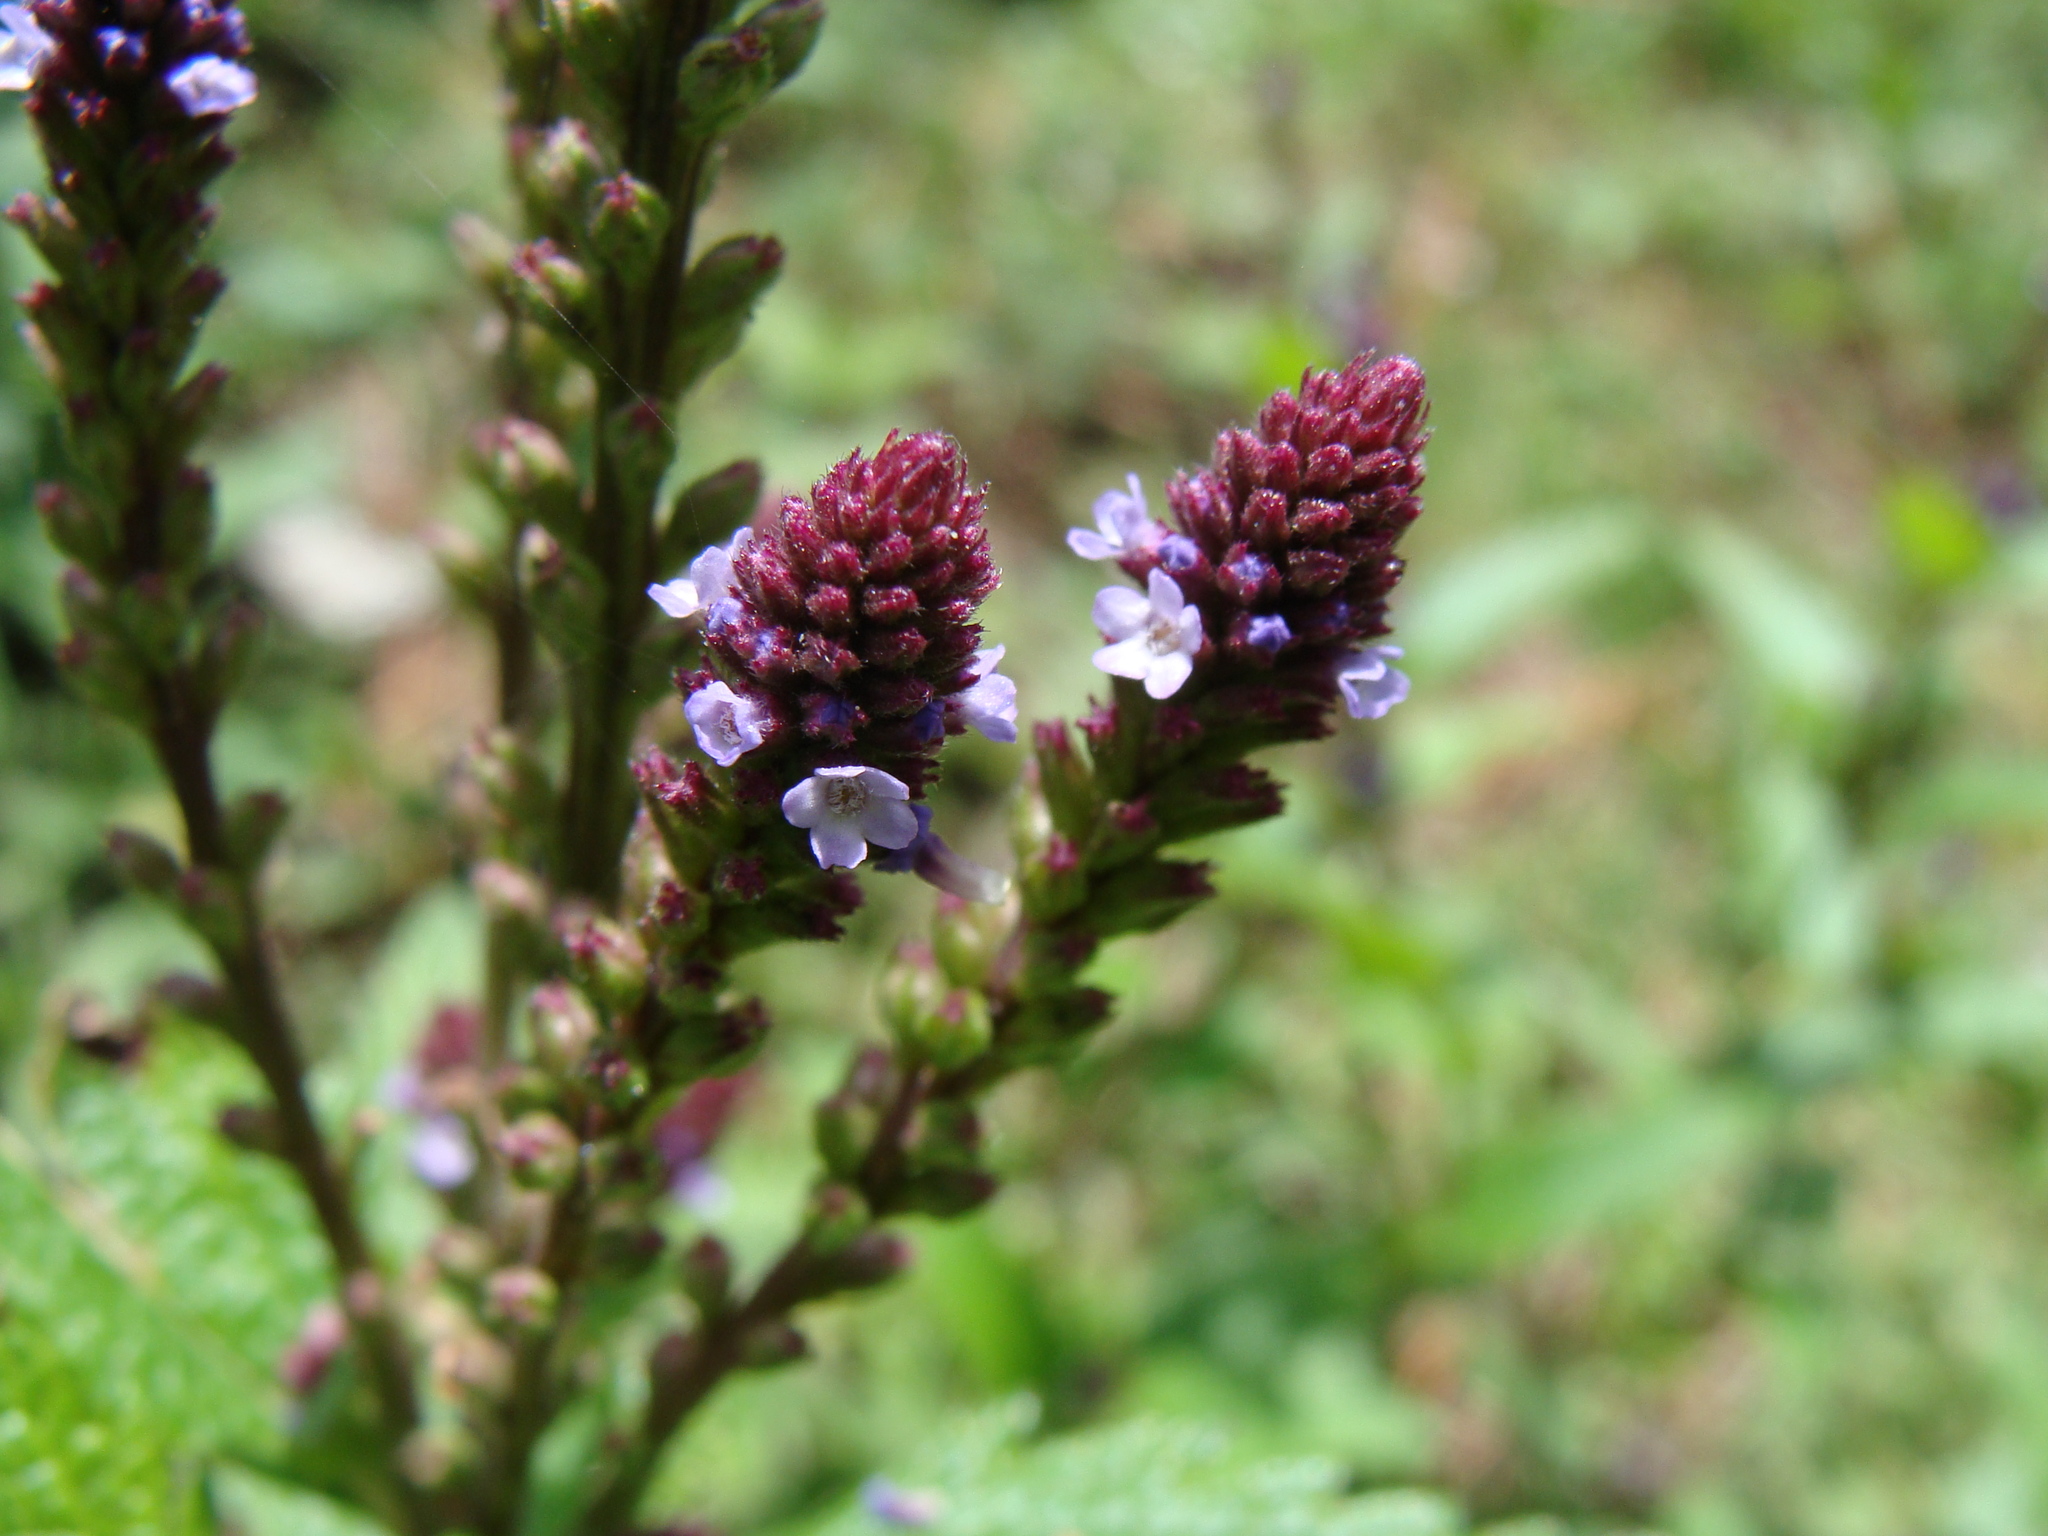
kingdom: Plantae
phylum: Tracheophyta
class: Magnoliopsida
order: Lamiales
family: Verbenaceae
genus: Verbena
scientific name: Verbena recta
